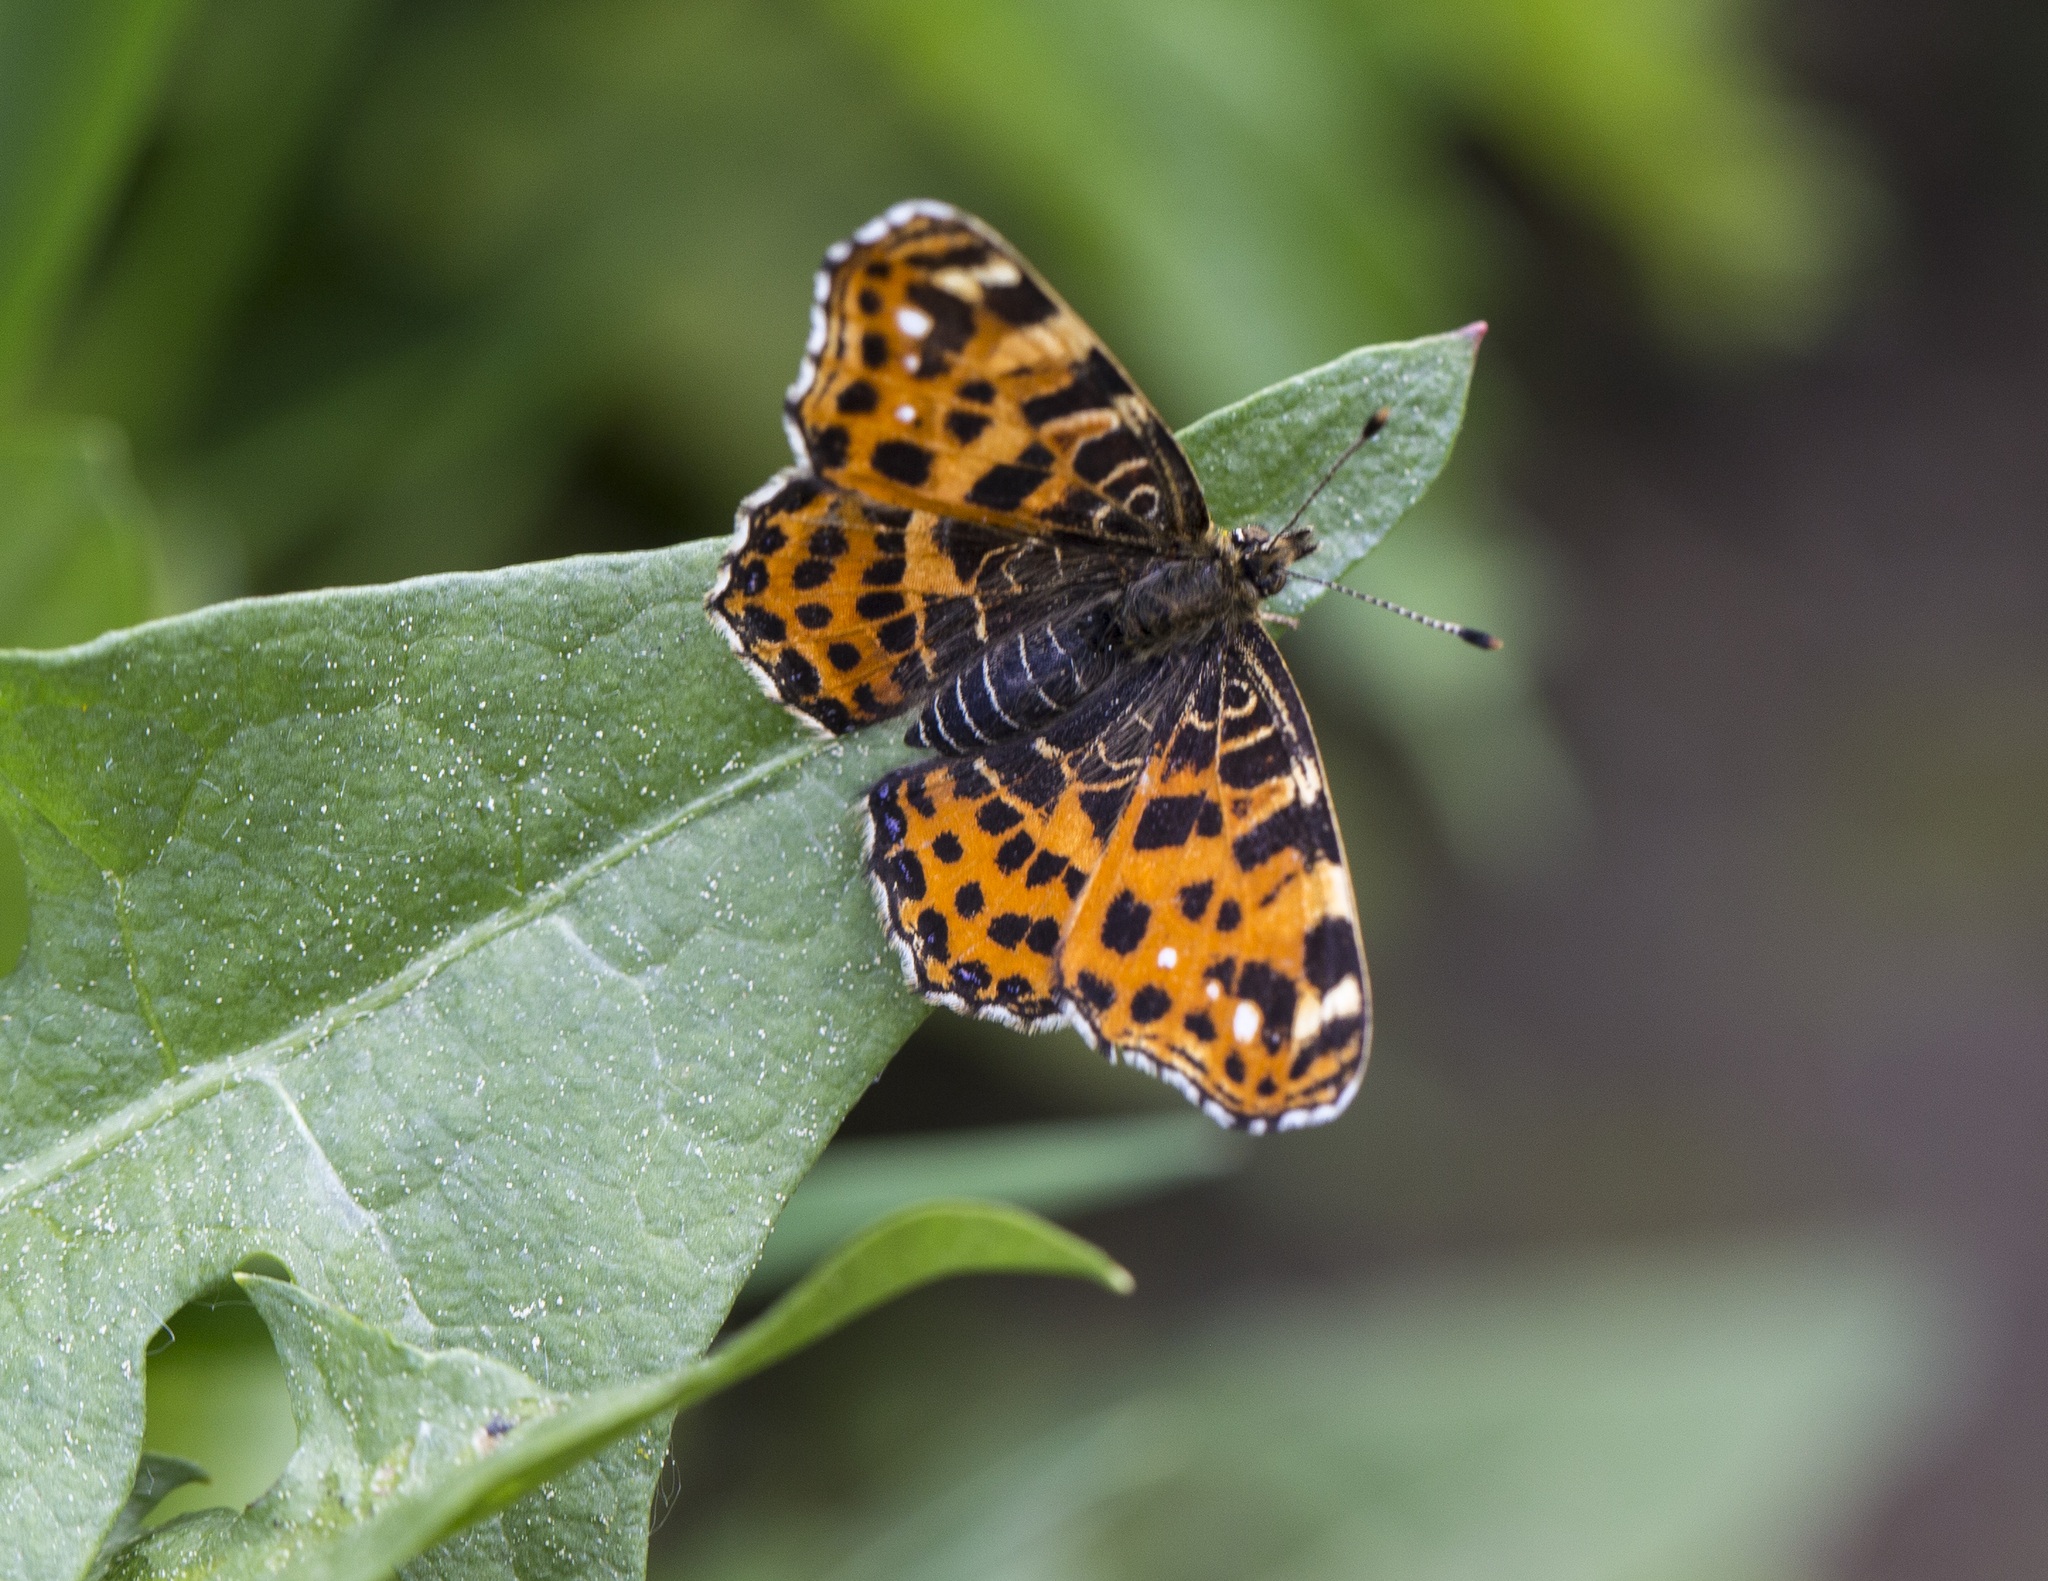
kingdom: Animalia
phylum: Arthropoda
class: Insecta
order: Lepidoptera
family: Nymphalidae
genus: Araschnia
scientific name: Araschnia levana
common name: Map butterfly
